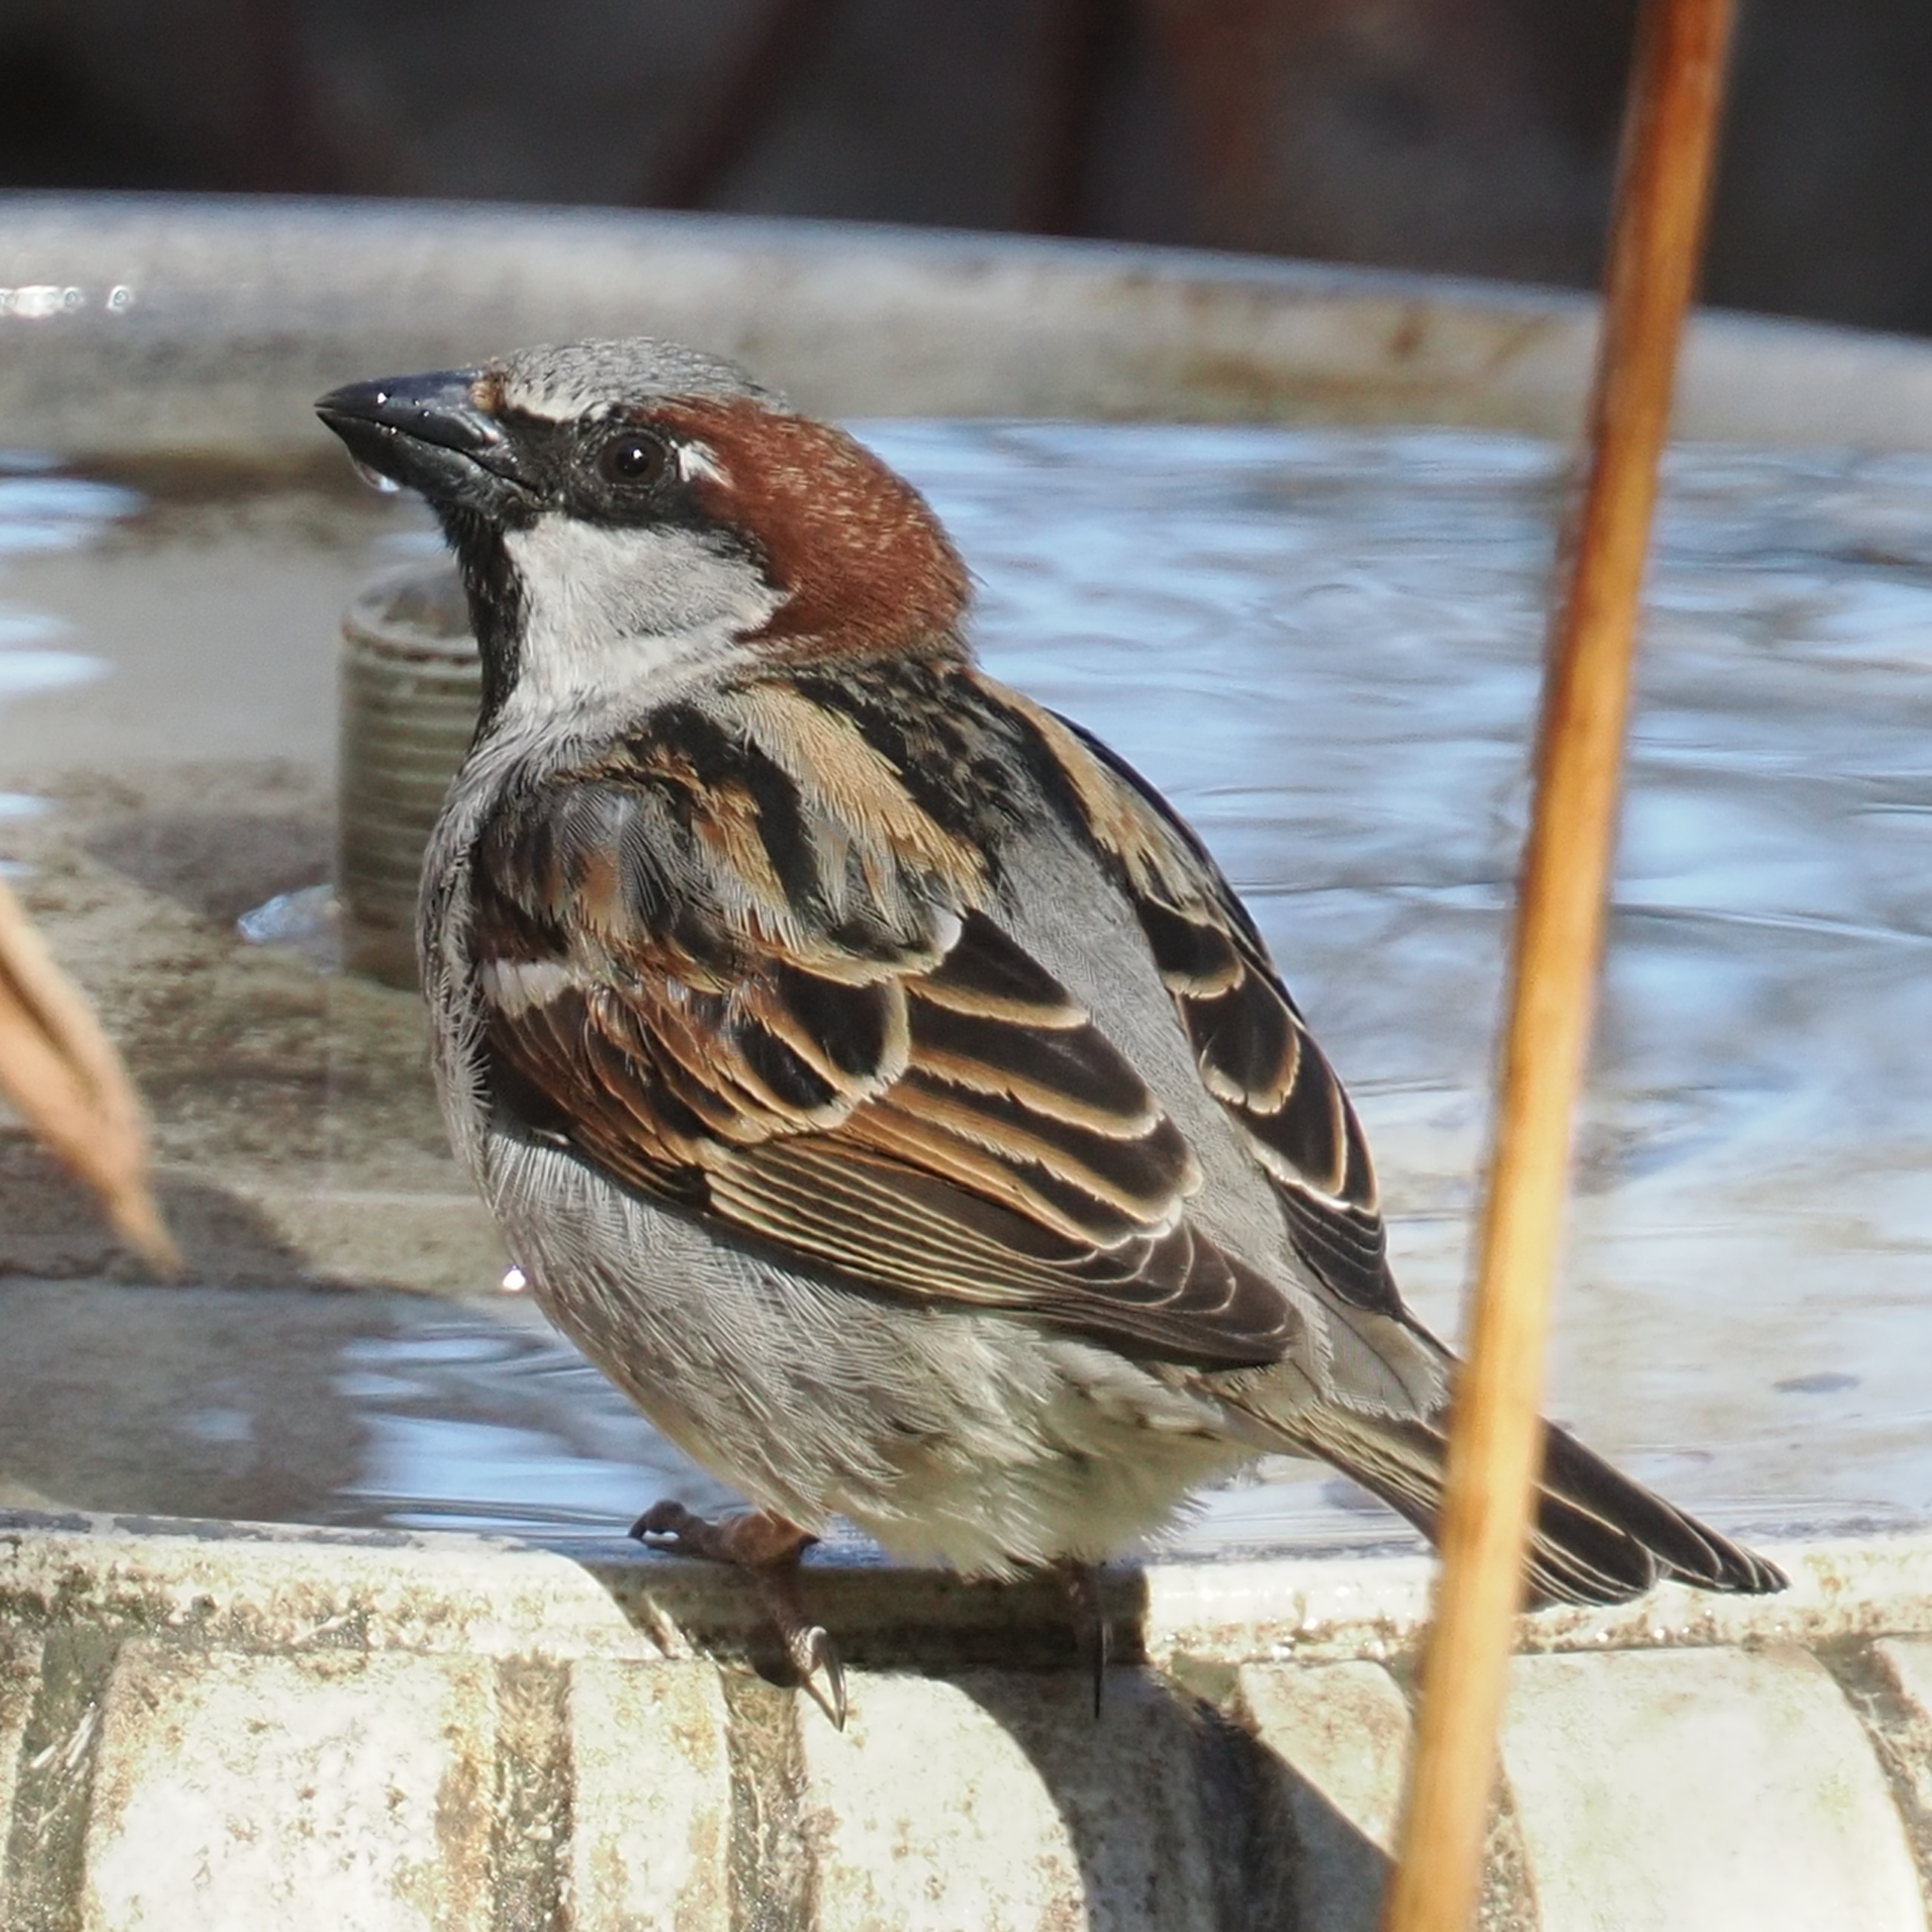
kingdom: Animalia
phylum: Chordata
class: Aves
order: Passeriformes
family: Passeridae
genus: Passer
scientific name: Passer domesticus
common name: House sparrow
